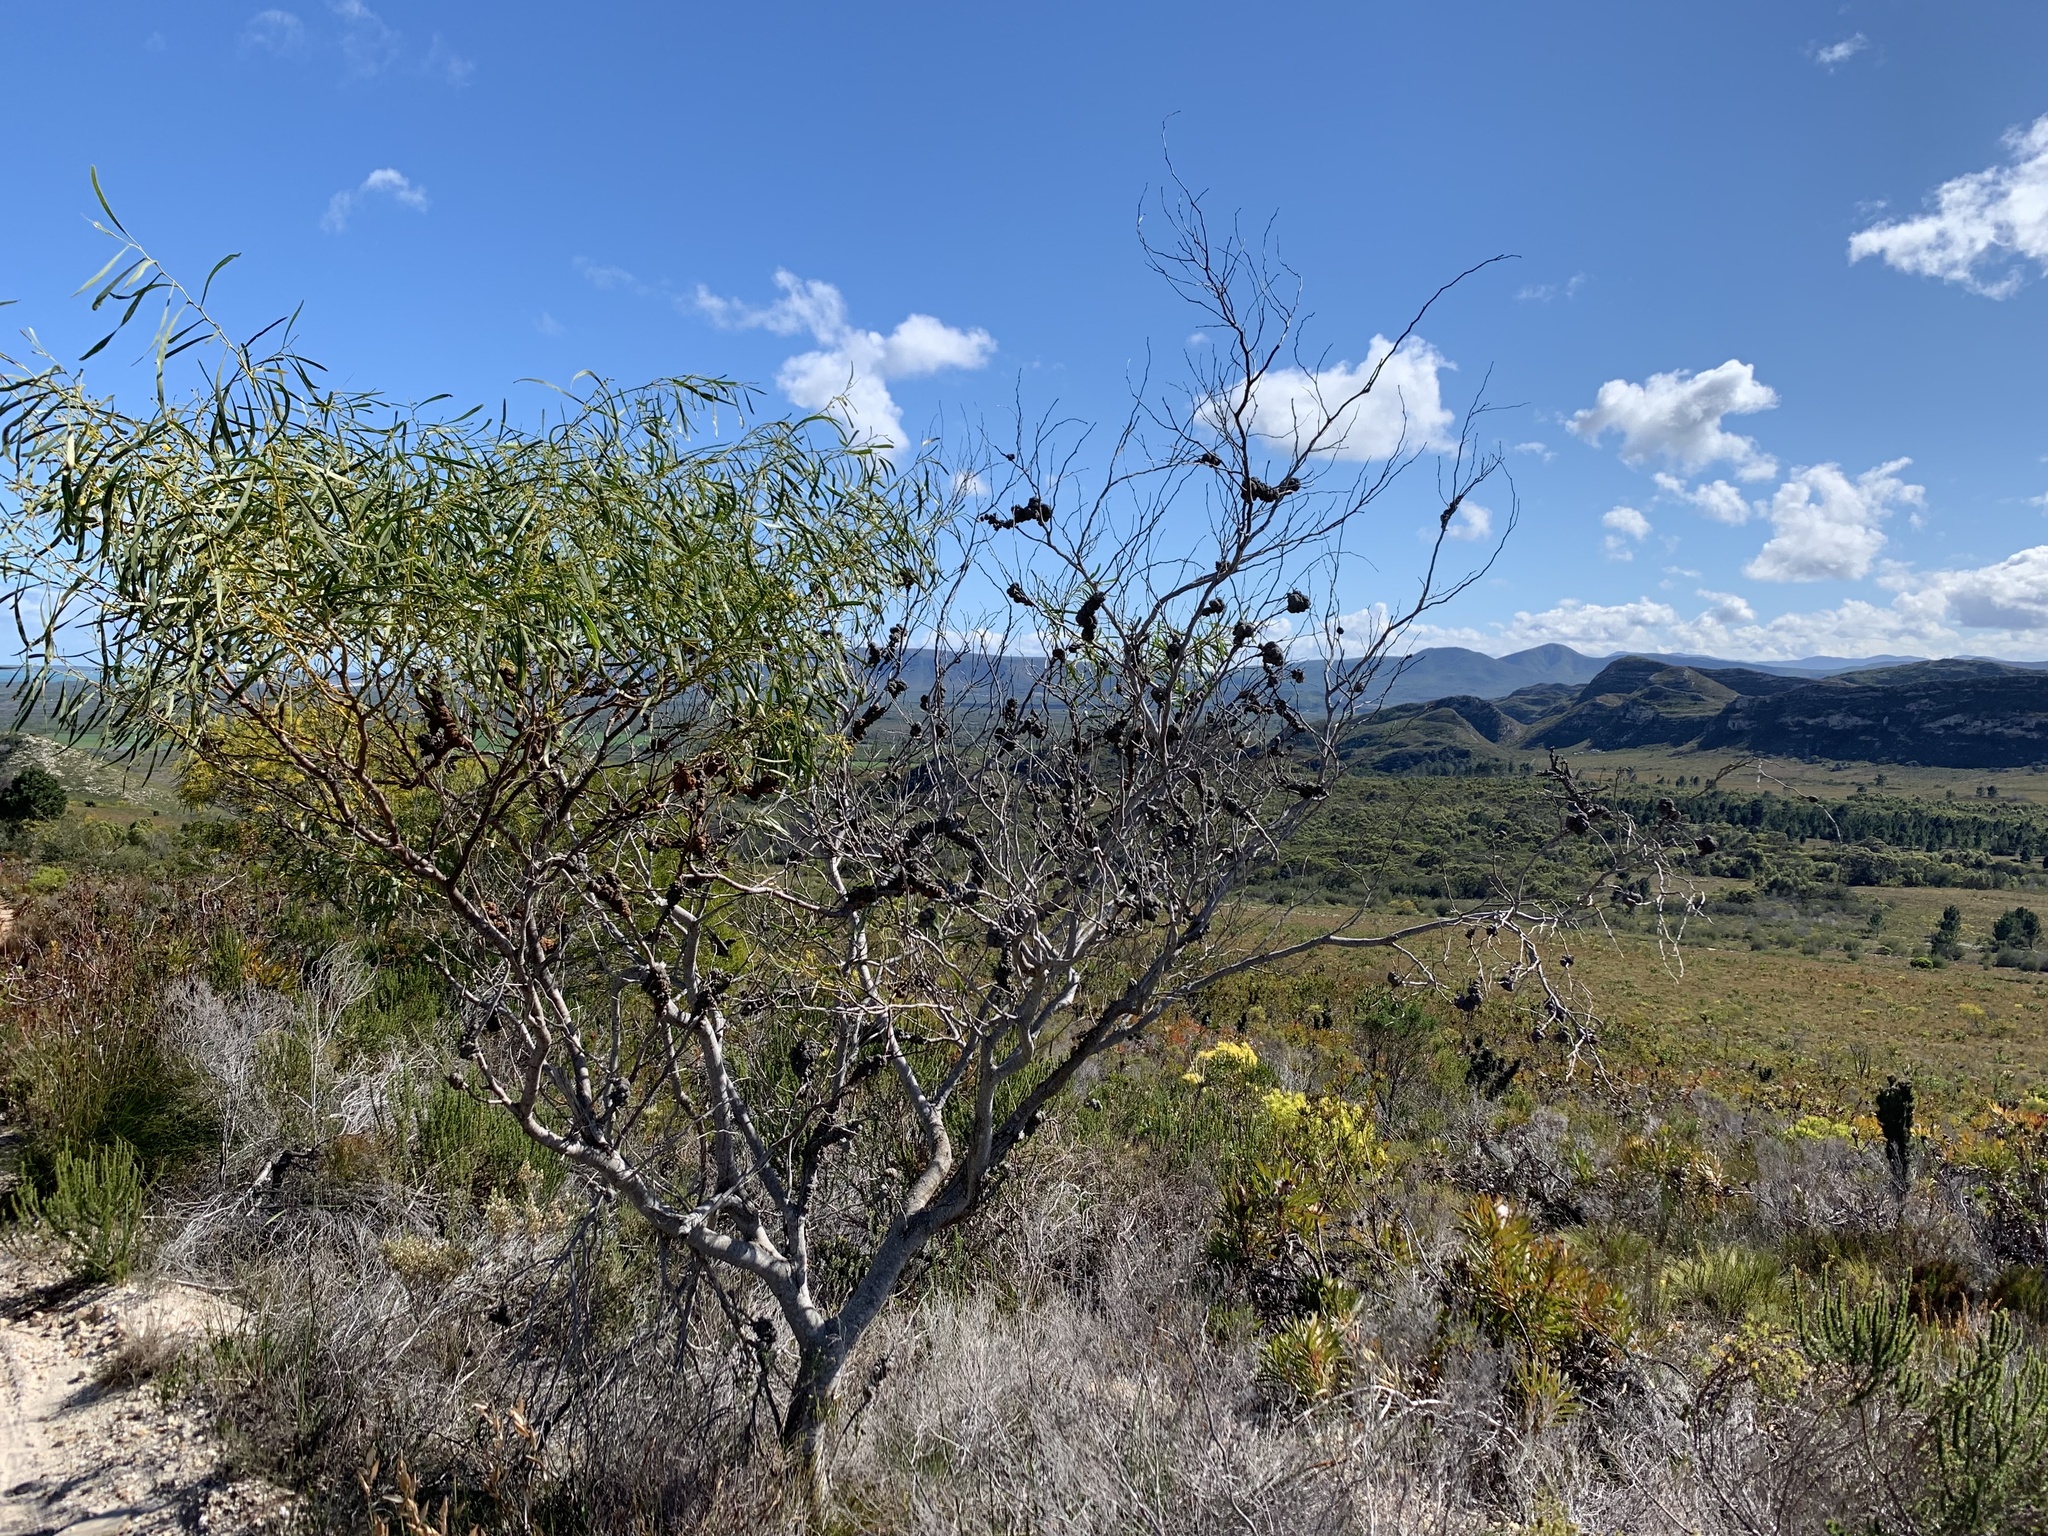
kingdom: Plantae
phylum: Tracheophyta
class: Magnoliopsida
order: Fabales
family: Fabaceae
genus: Acacia
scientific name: Acacia saligna
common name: Orange wattle
